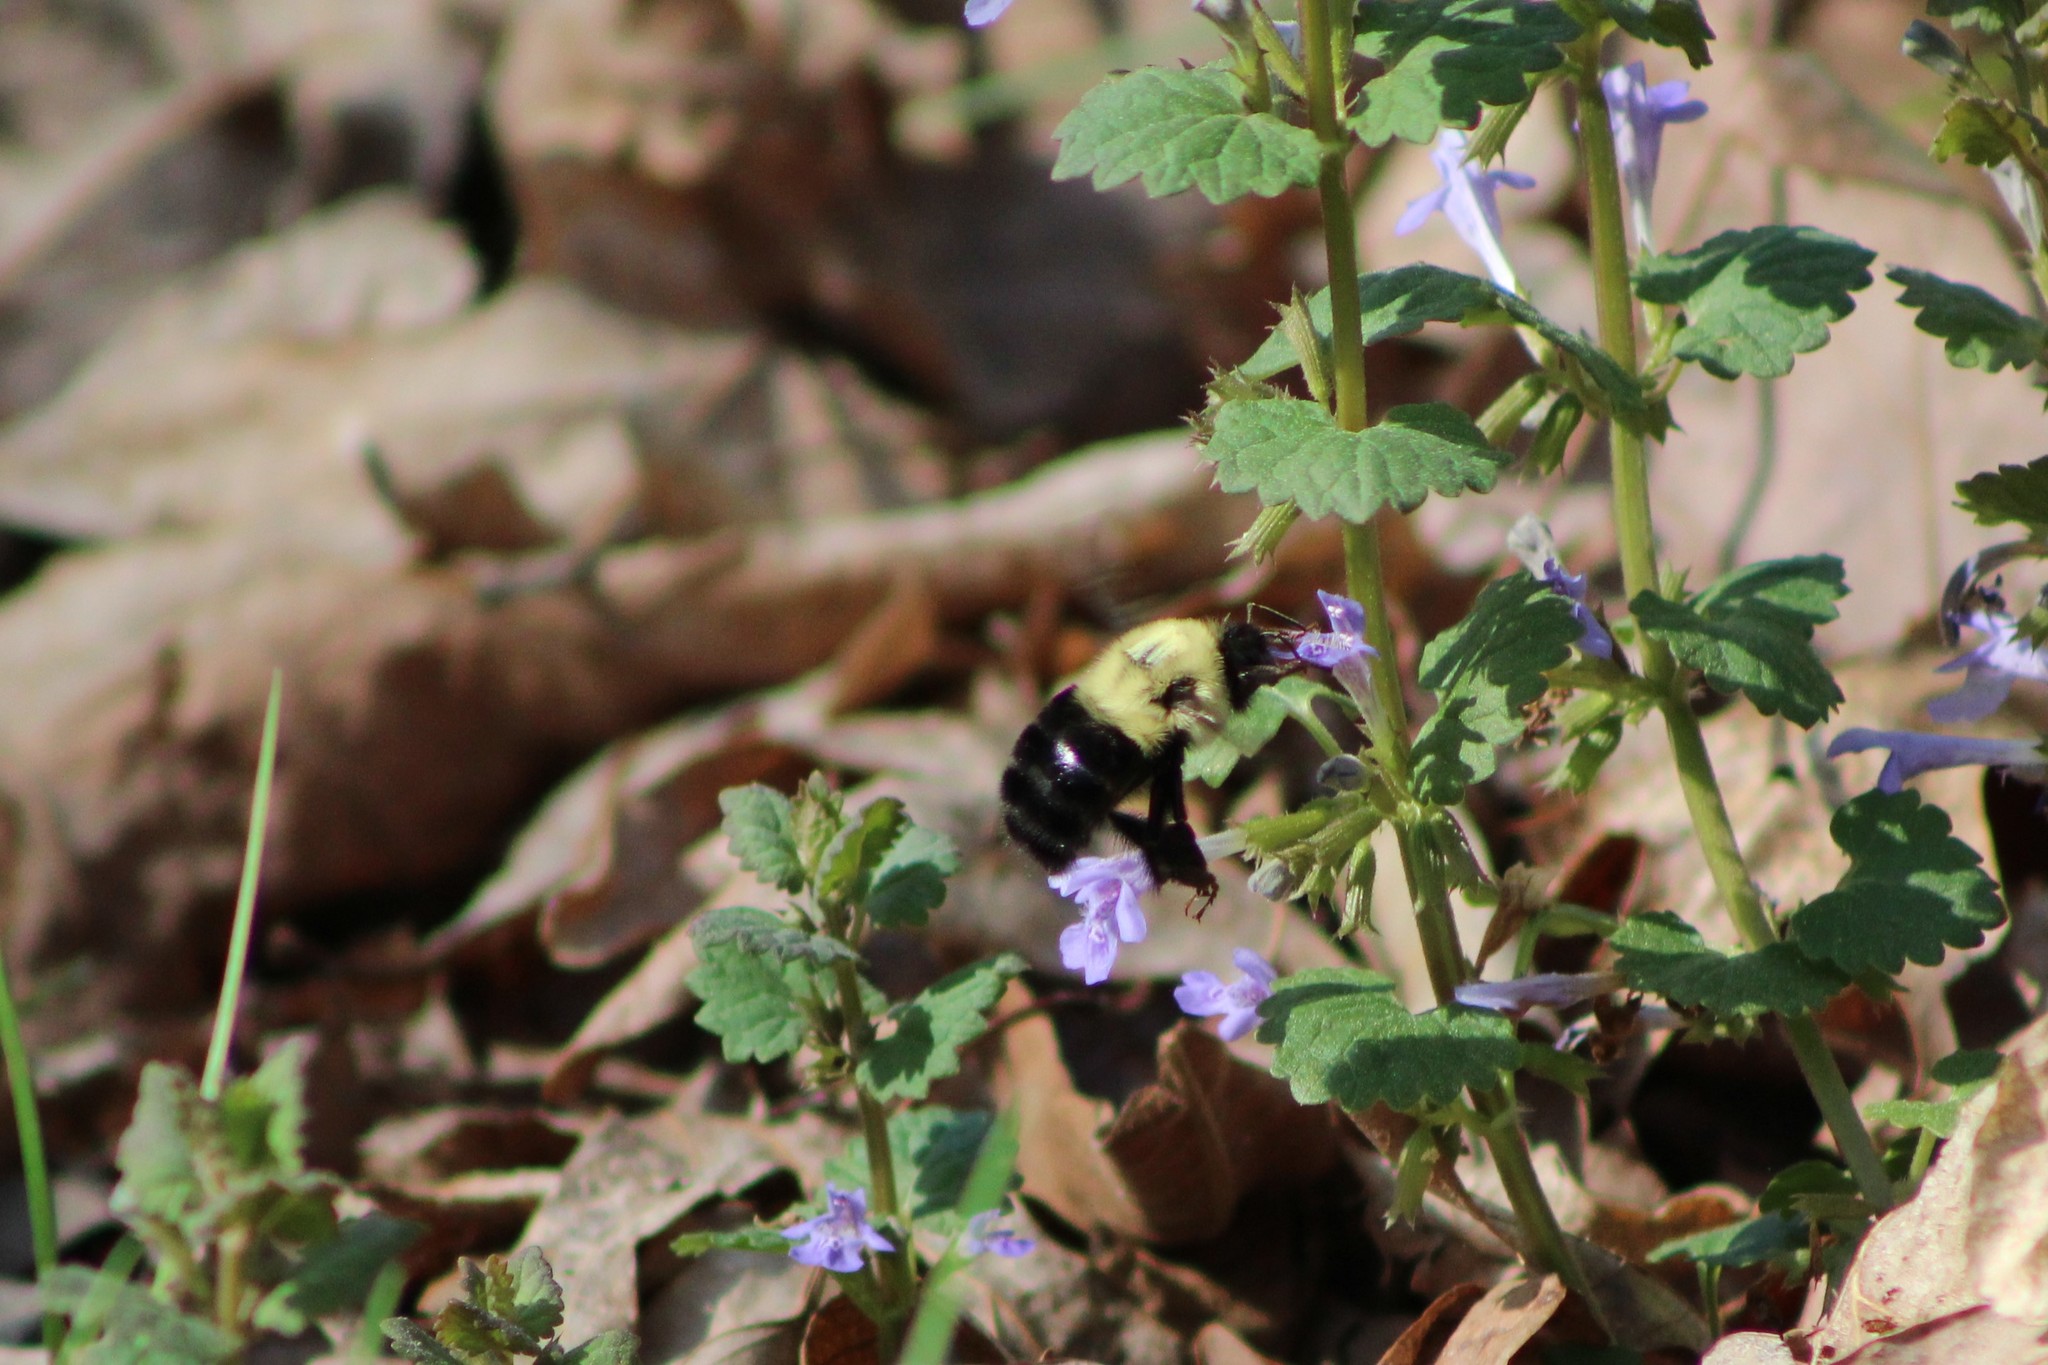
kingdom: Animalia
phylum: Arthropoda
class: Insecta
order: Hymenoptera
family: Apidae
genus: Bombus
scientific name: Bombus bimaculatus
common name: Two-spotted bumble bee
